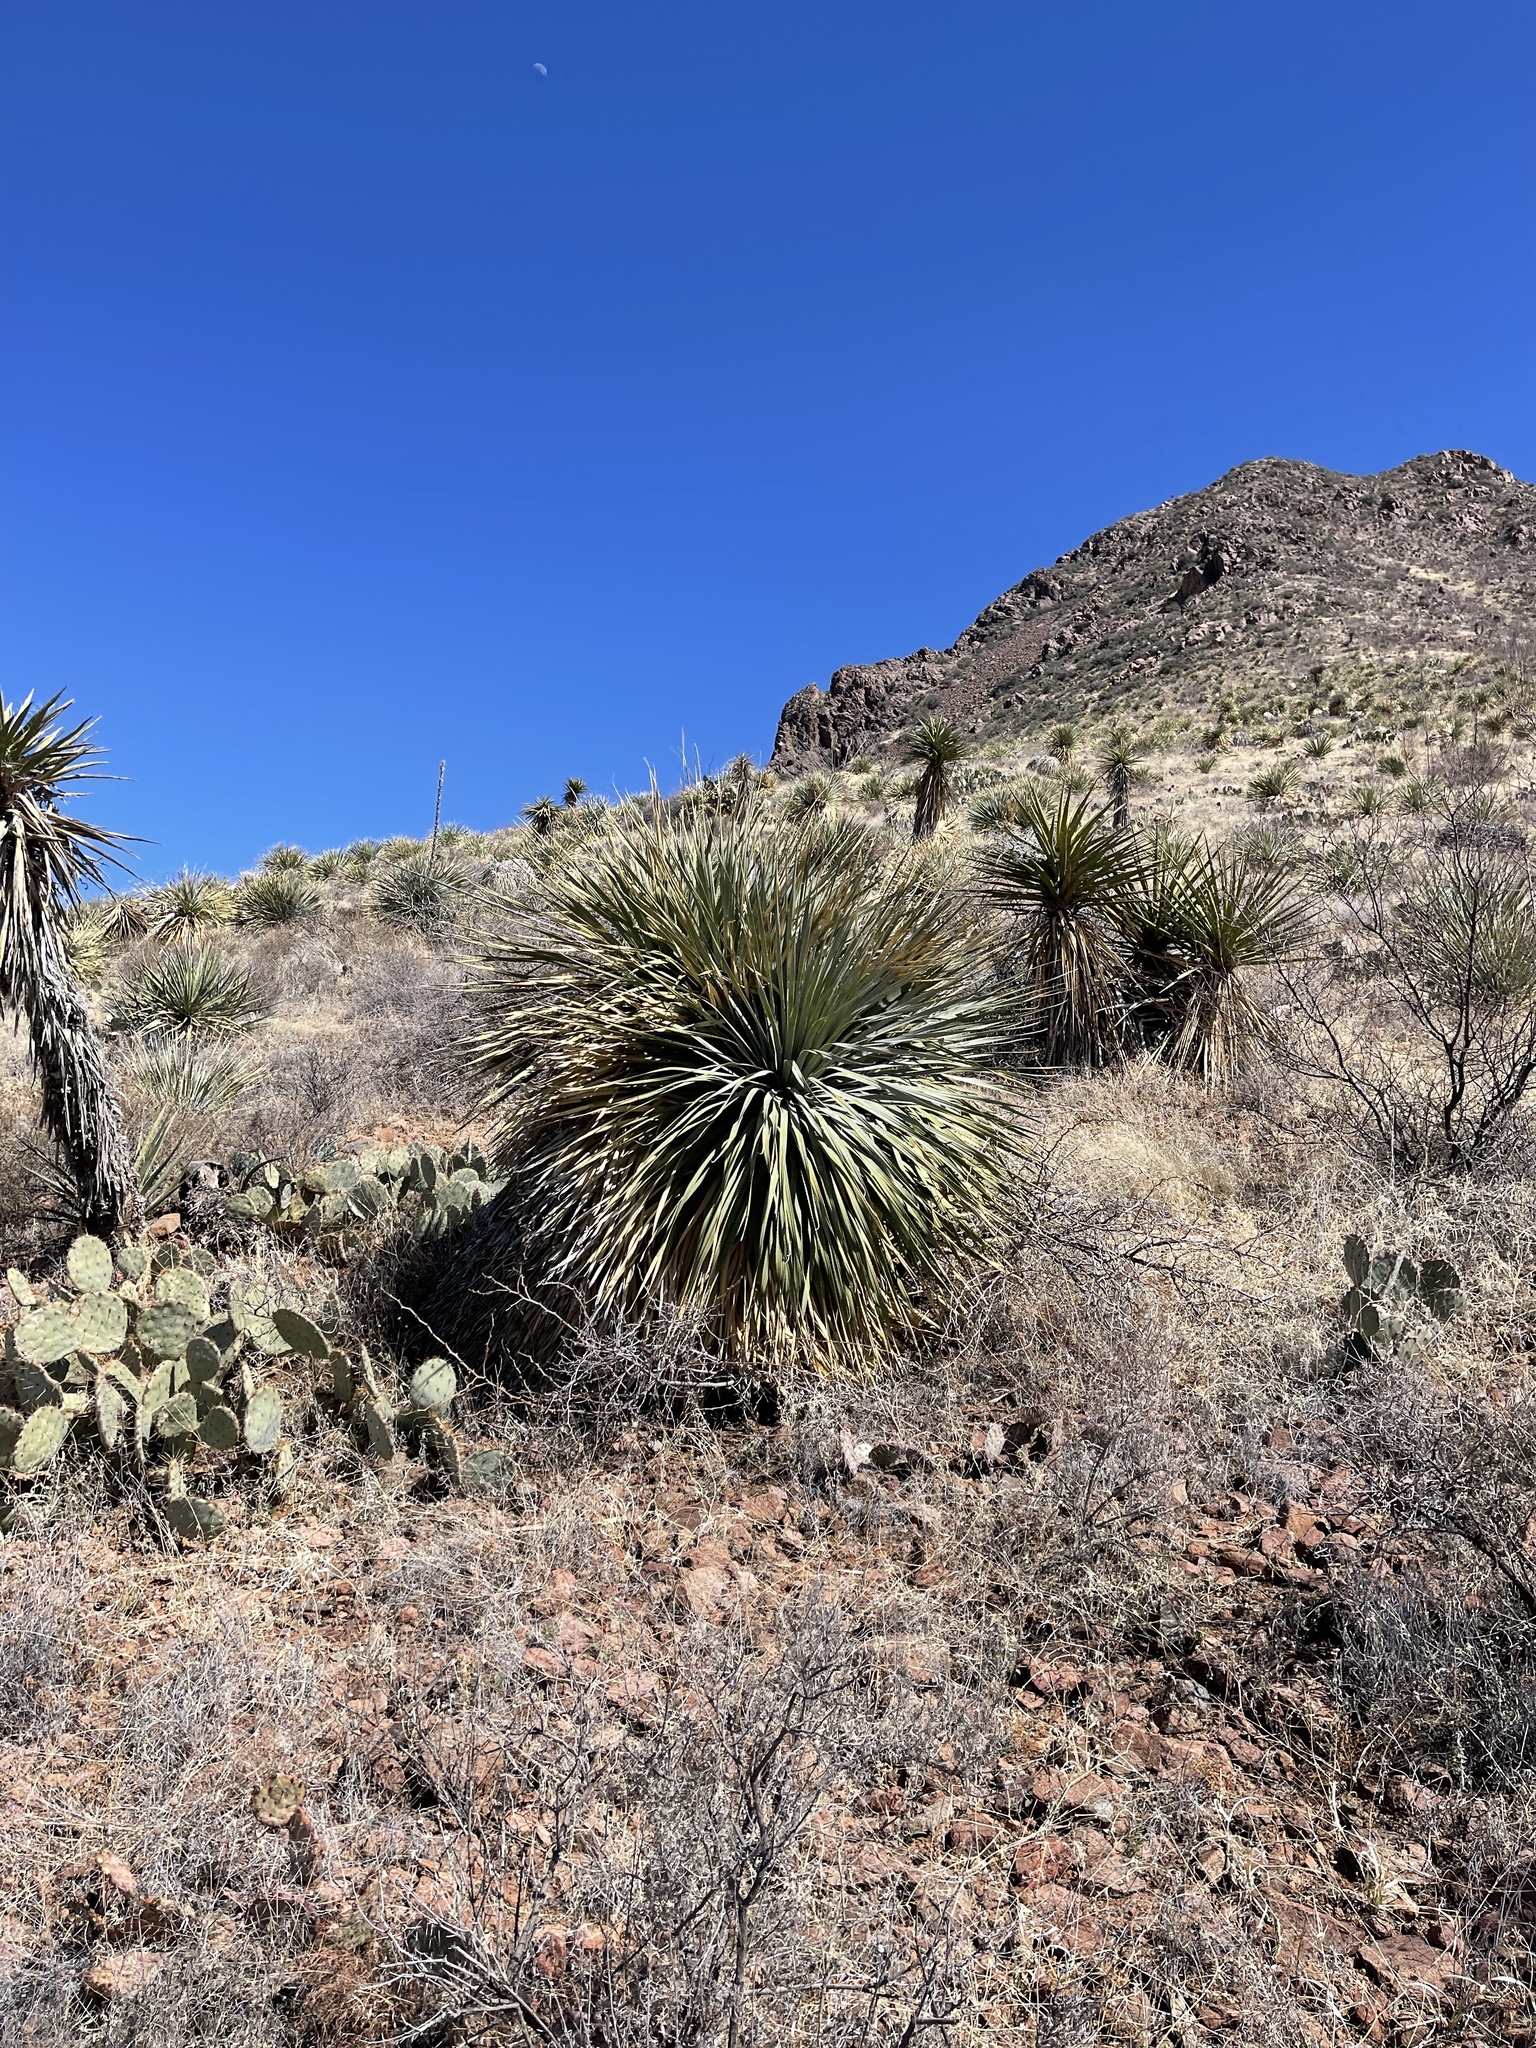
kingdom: Plantae
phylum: Tracheophyta
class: Liliopsida
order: Asparagales
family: Asparagaceae
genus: Dasylirion
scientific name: Dasylirion wheeleri
